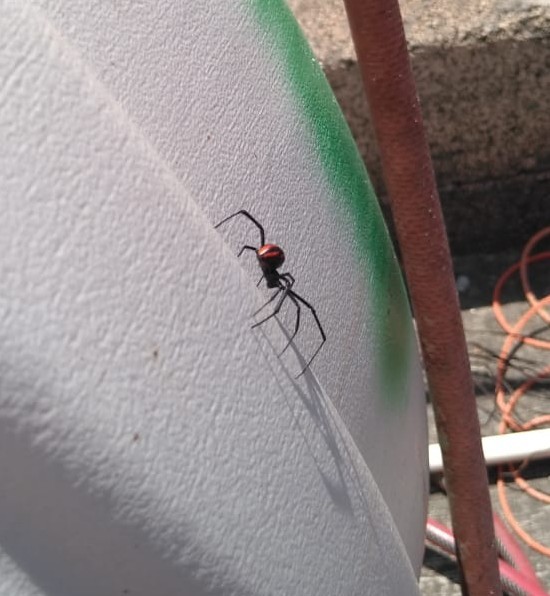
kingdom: Animalia
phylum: Arthropoda
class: Arachnida
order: Araneae
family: Theridiidae
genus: Latrodectus
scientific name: Latrodectus
